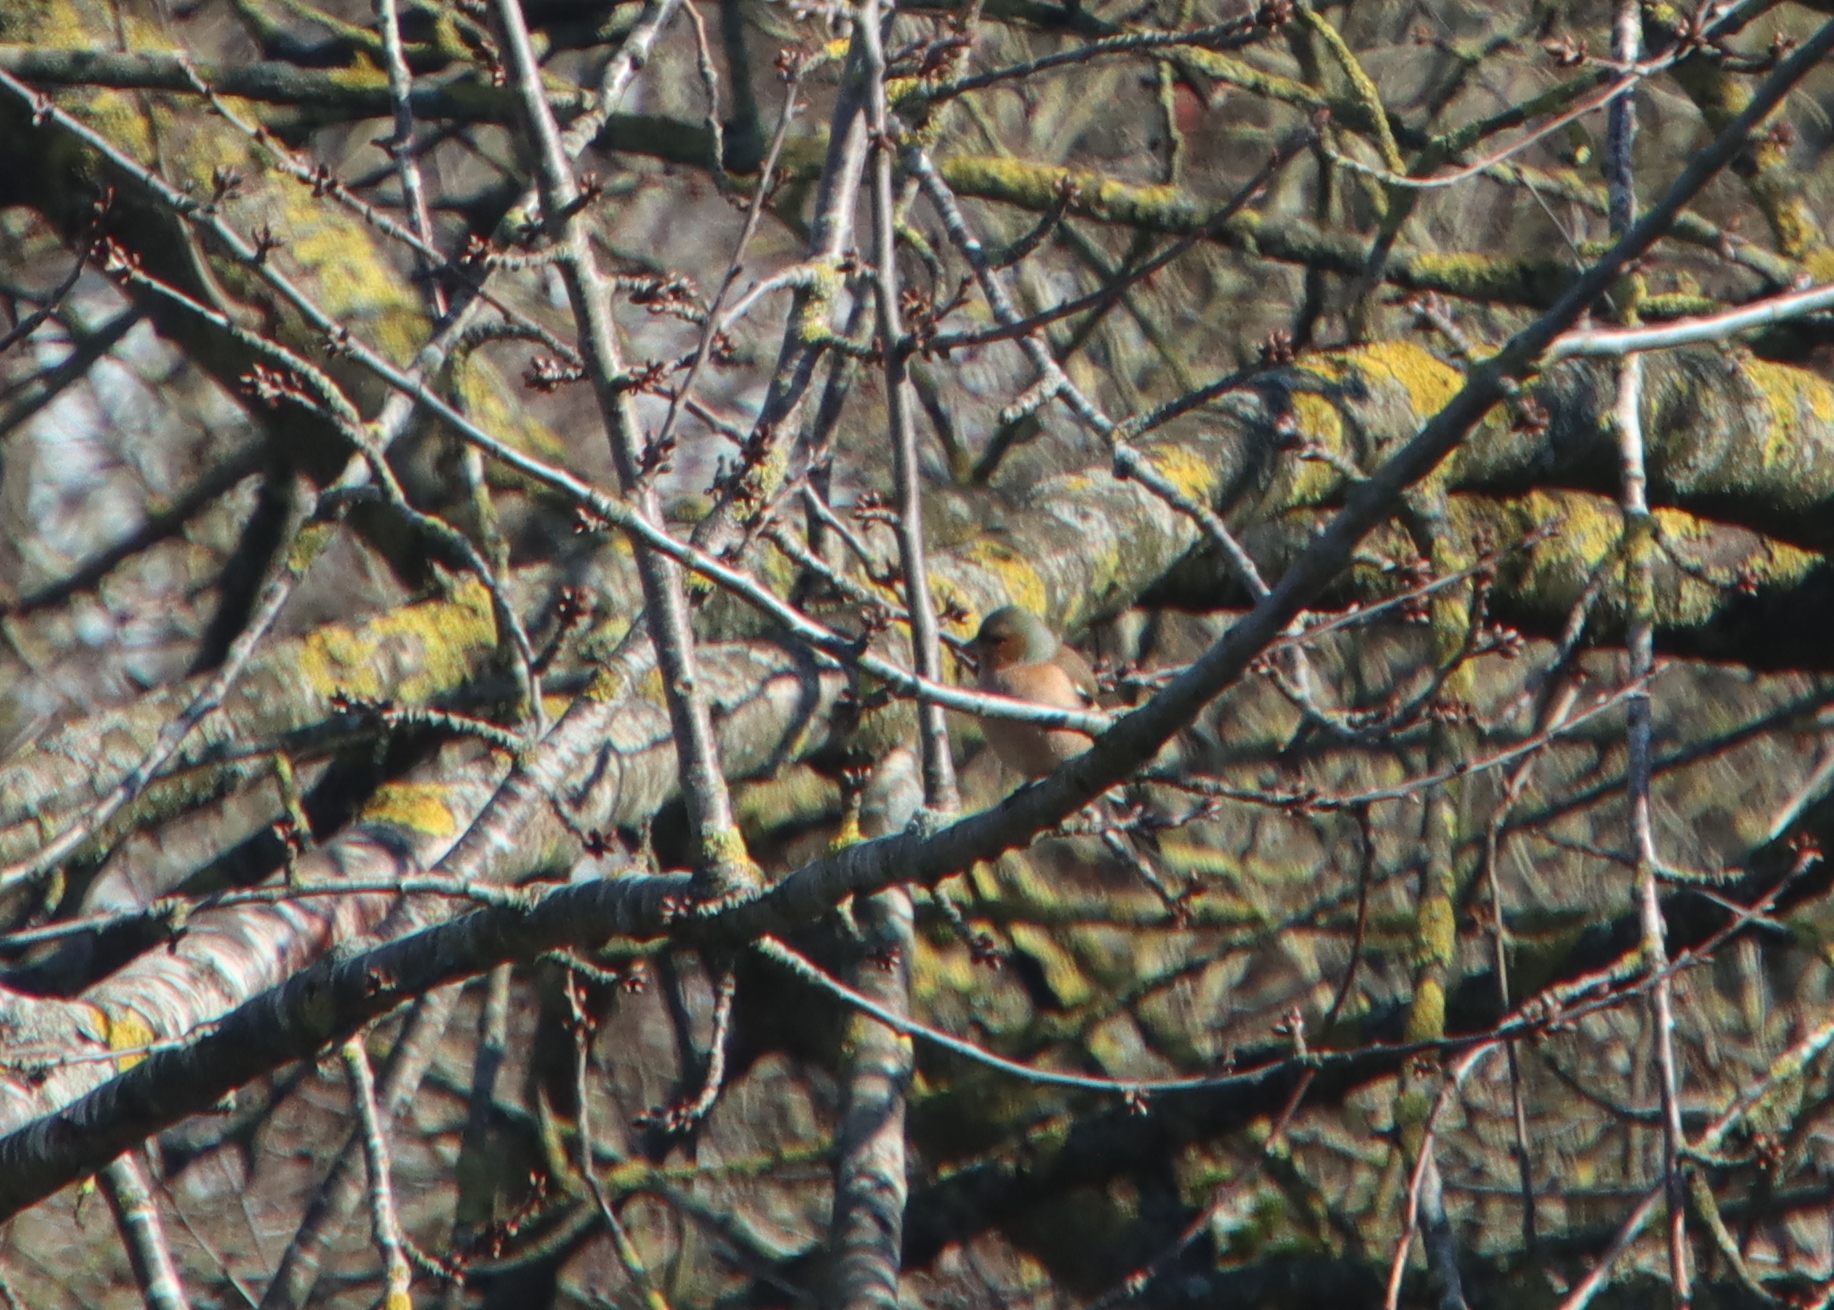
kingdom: Animalia
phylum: Chordata
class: Aves
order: Passeriformes
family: Fringillidae
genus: Fringilla
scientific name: Fringilla coelebs
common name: Common chaffinch
